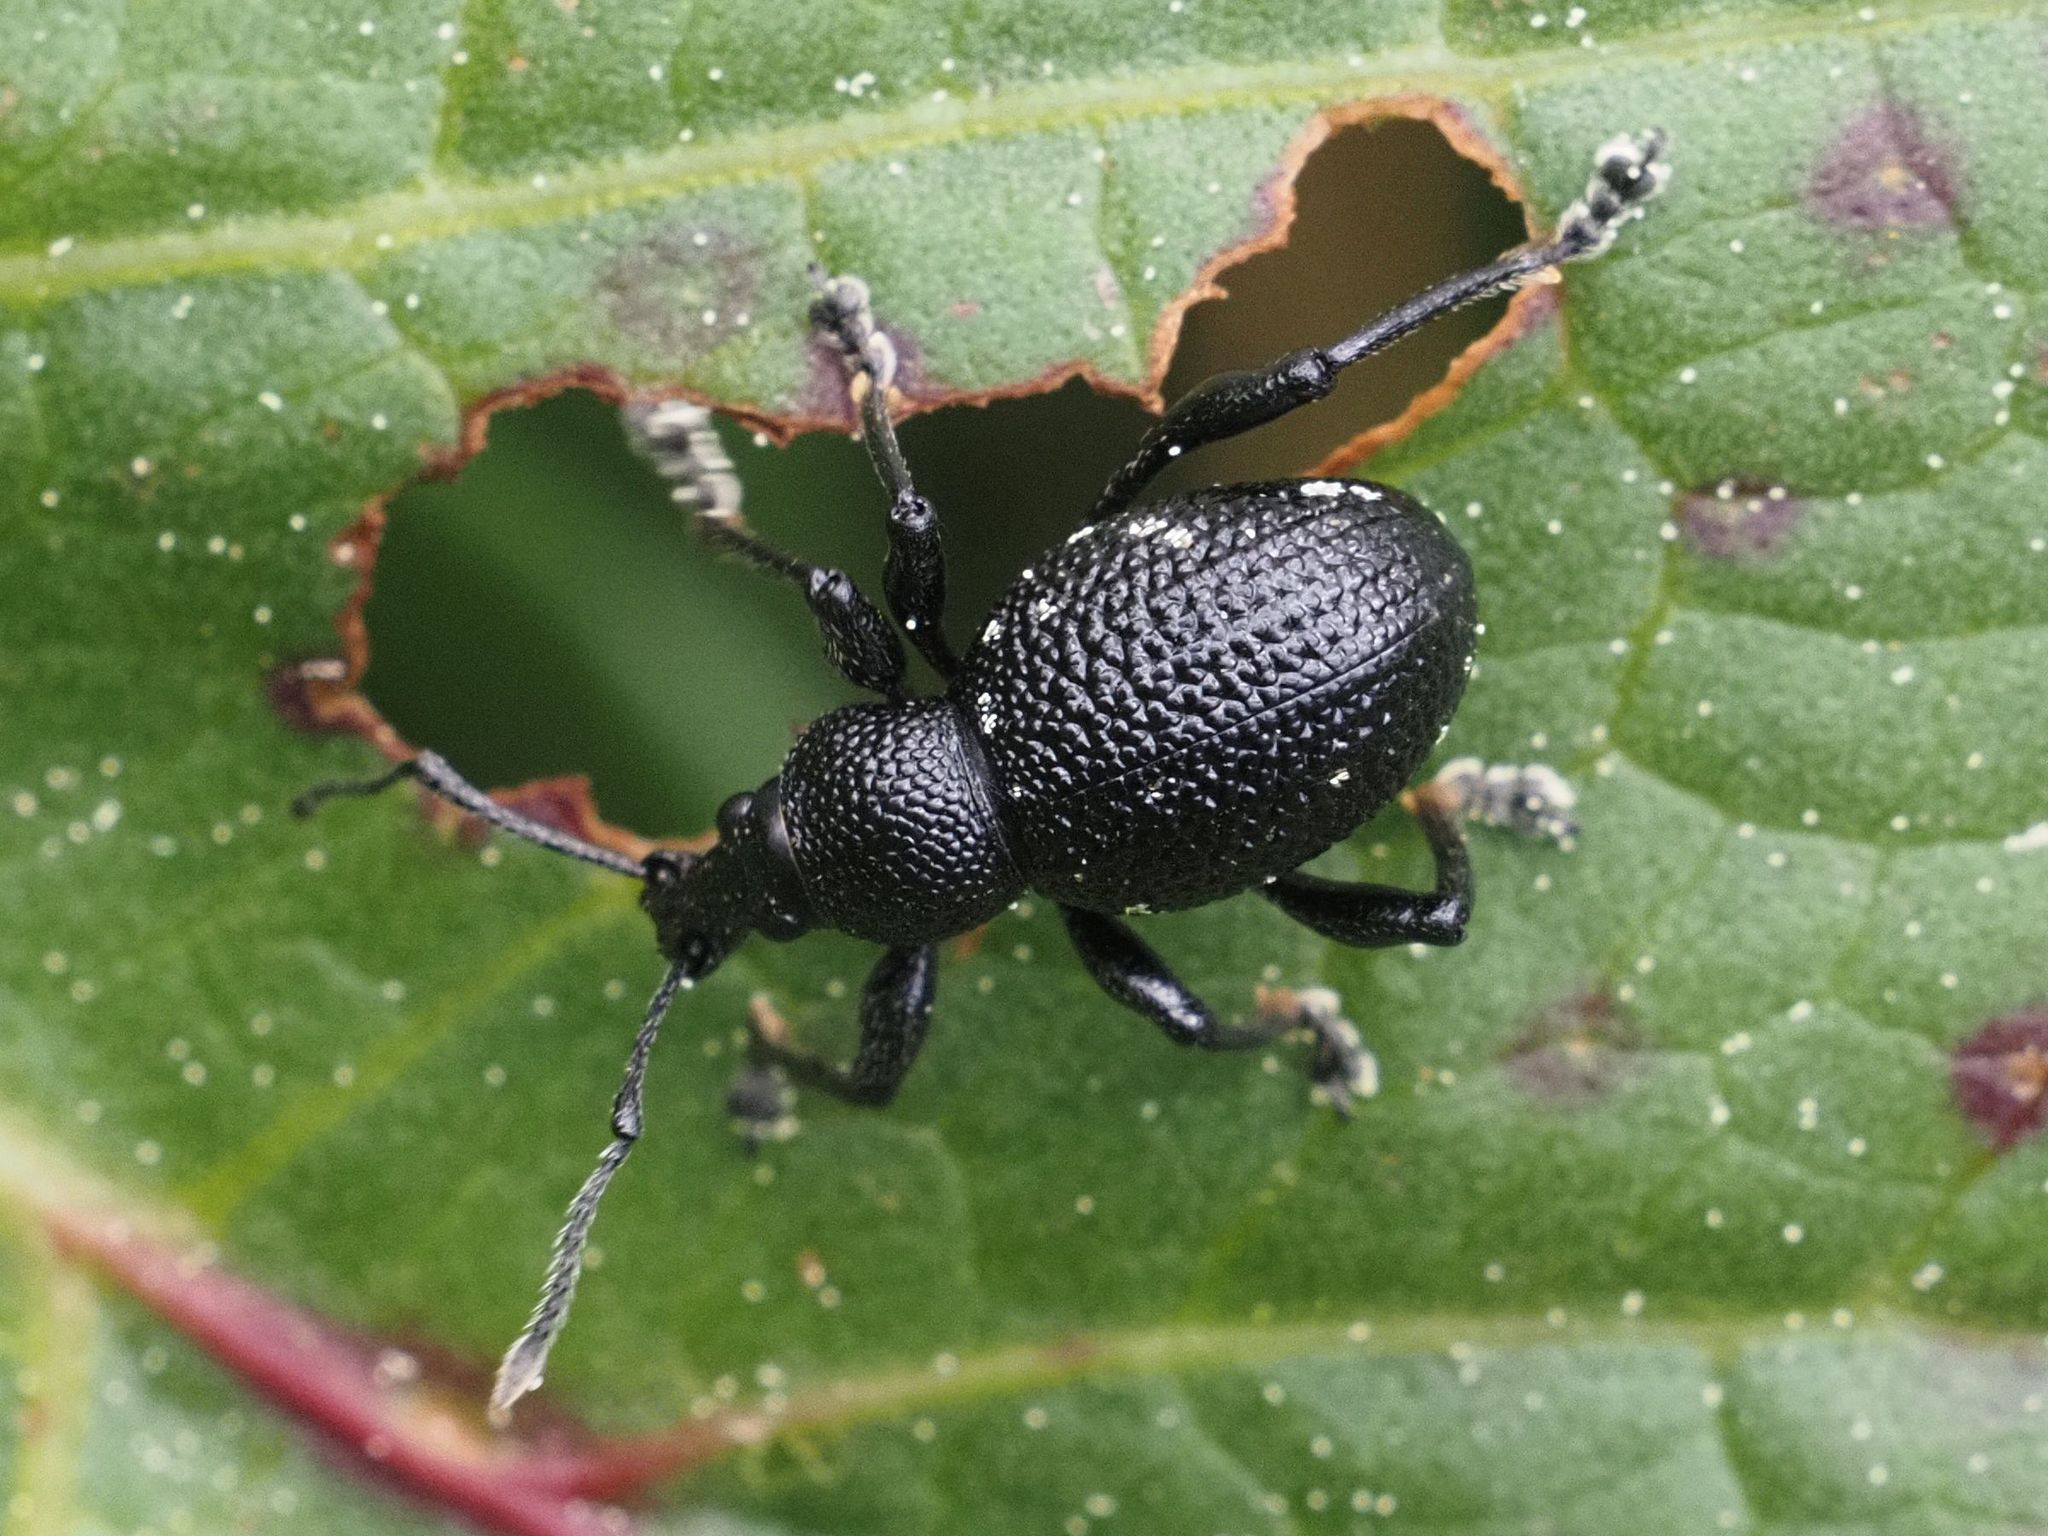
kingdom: Animalia
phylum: Arthropoda
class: Insecta
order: Coleoptera
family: Curculionidae
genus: Otiorhynchus
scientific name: Otiorhynchus gemmatus
